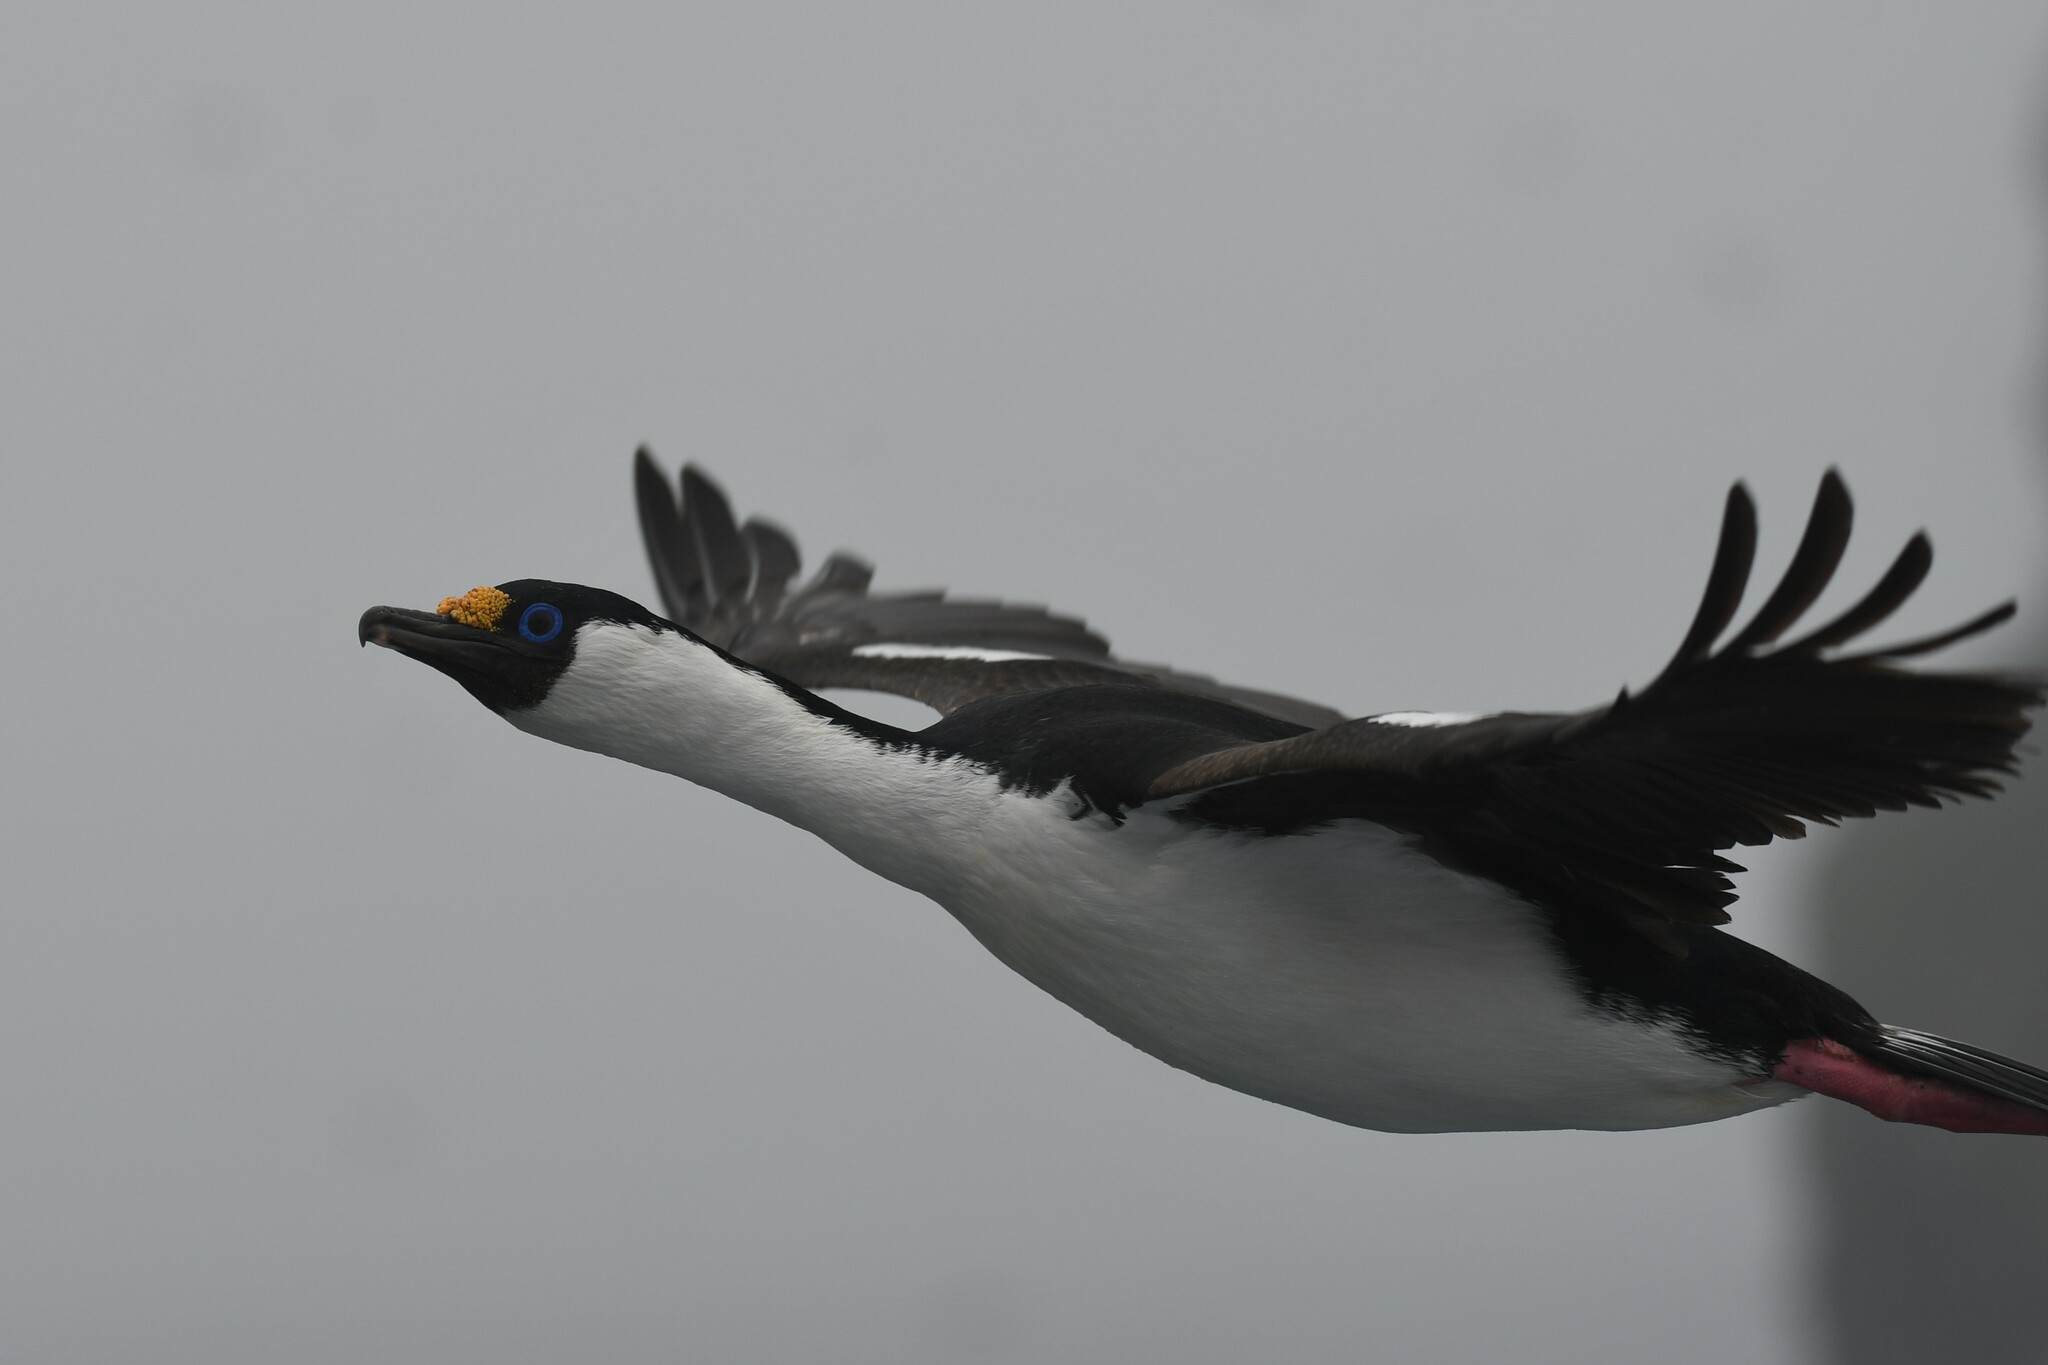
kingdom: Animalia
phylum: Chordata
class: Aves
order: Suliformes
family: Phalacrocoracidae
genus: Leucocarbo
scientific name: Leucocarbo atriceps
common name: Imperial shag
